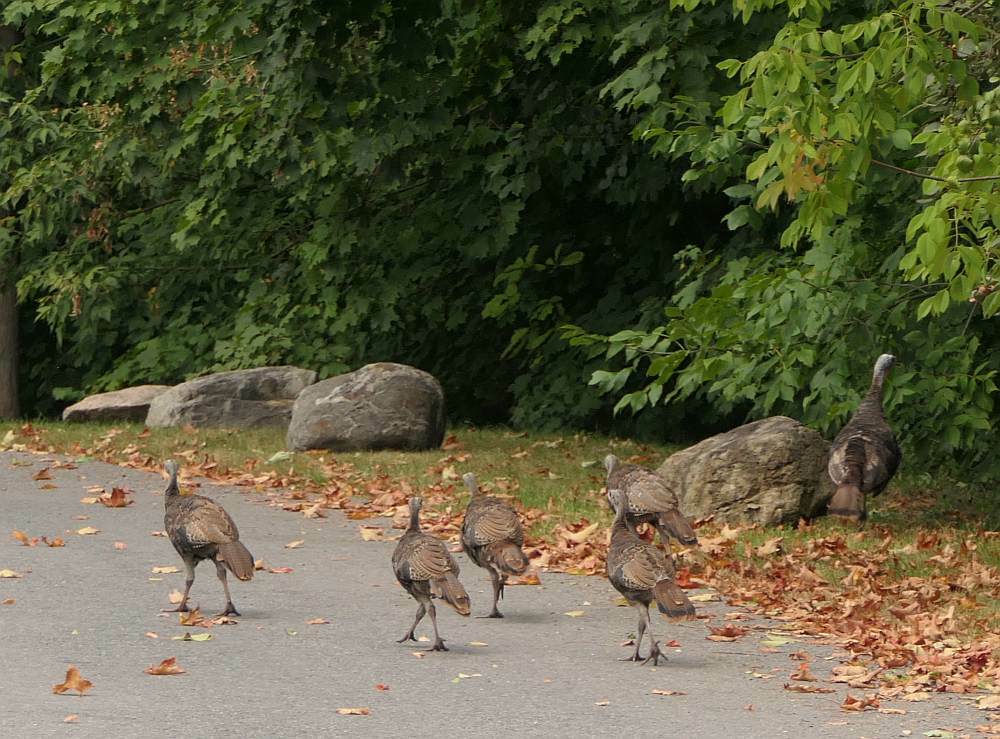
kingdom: Animalia
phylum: Chordata
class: Aves
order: Galliformes
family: Phasianidae
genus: Meleagris
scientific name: Meleagris gallopavo
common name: Wild turkey
